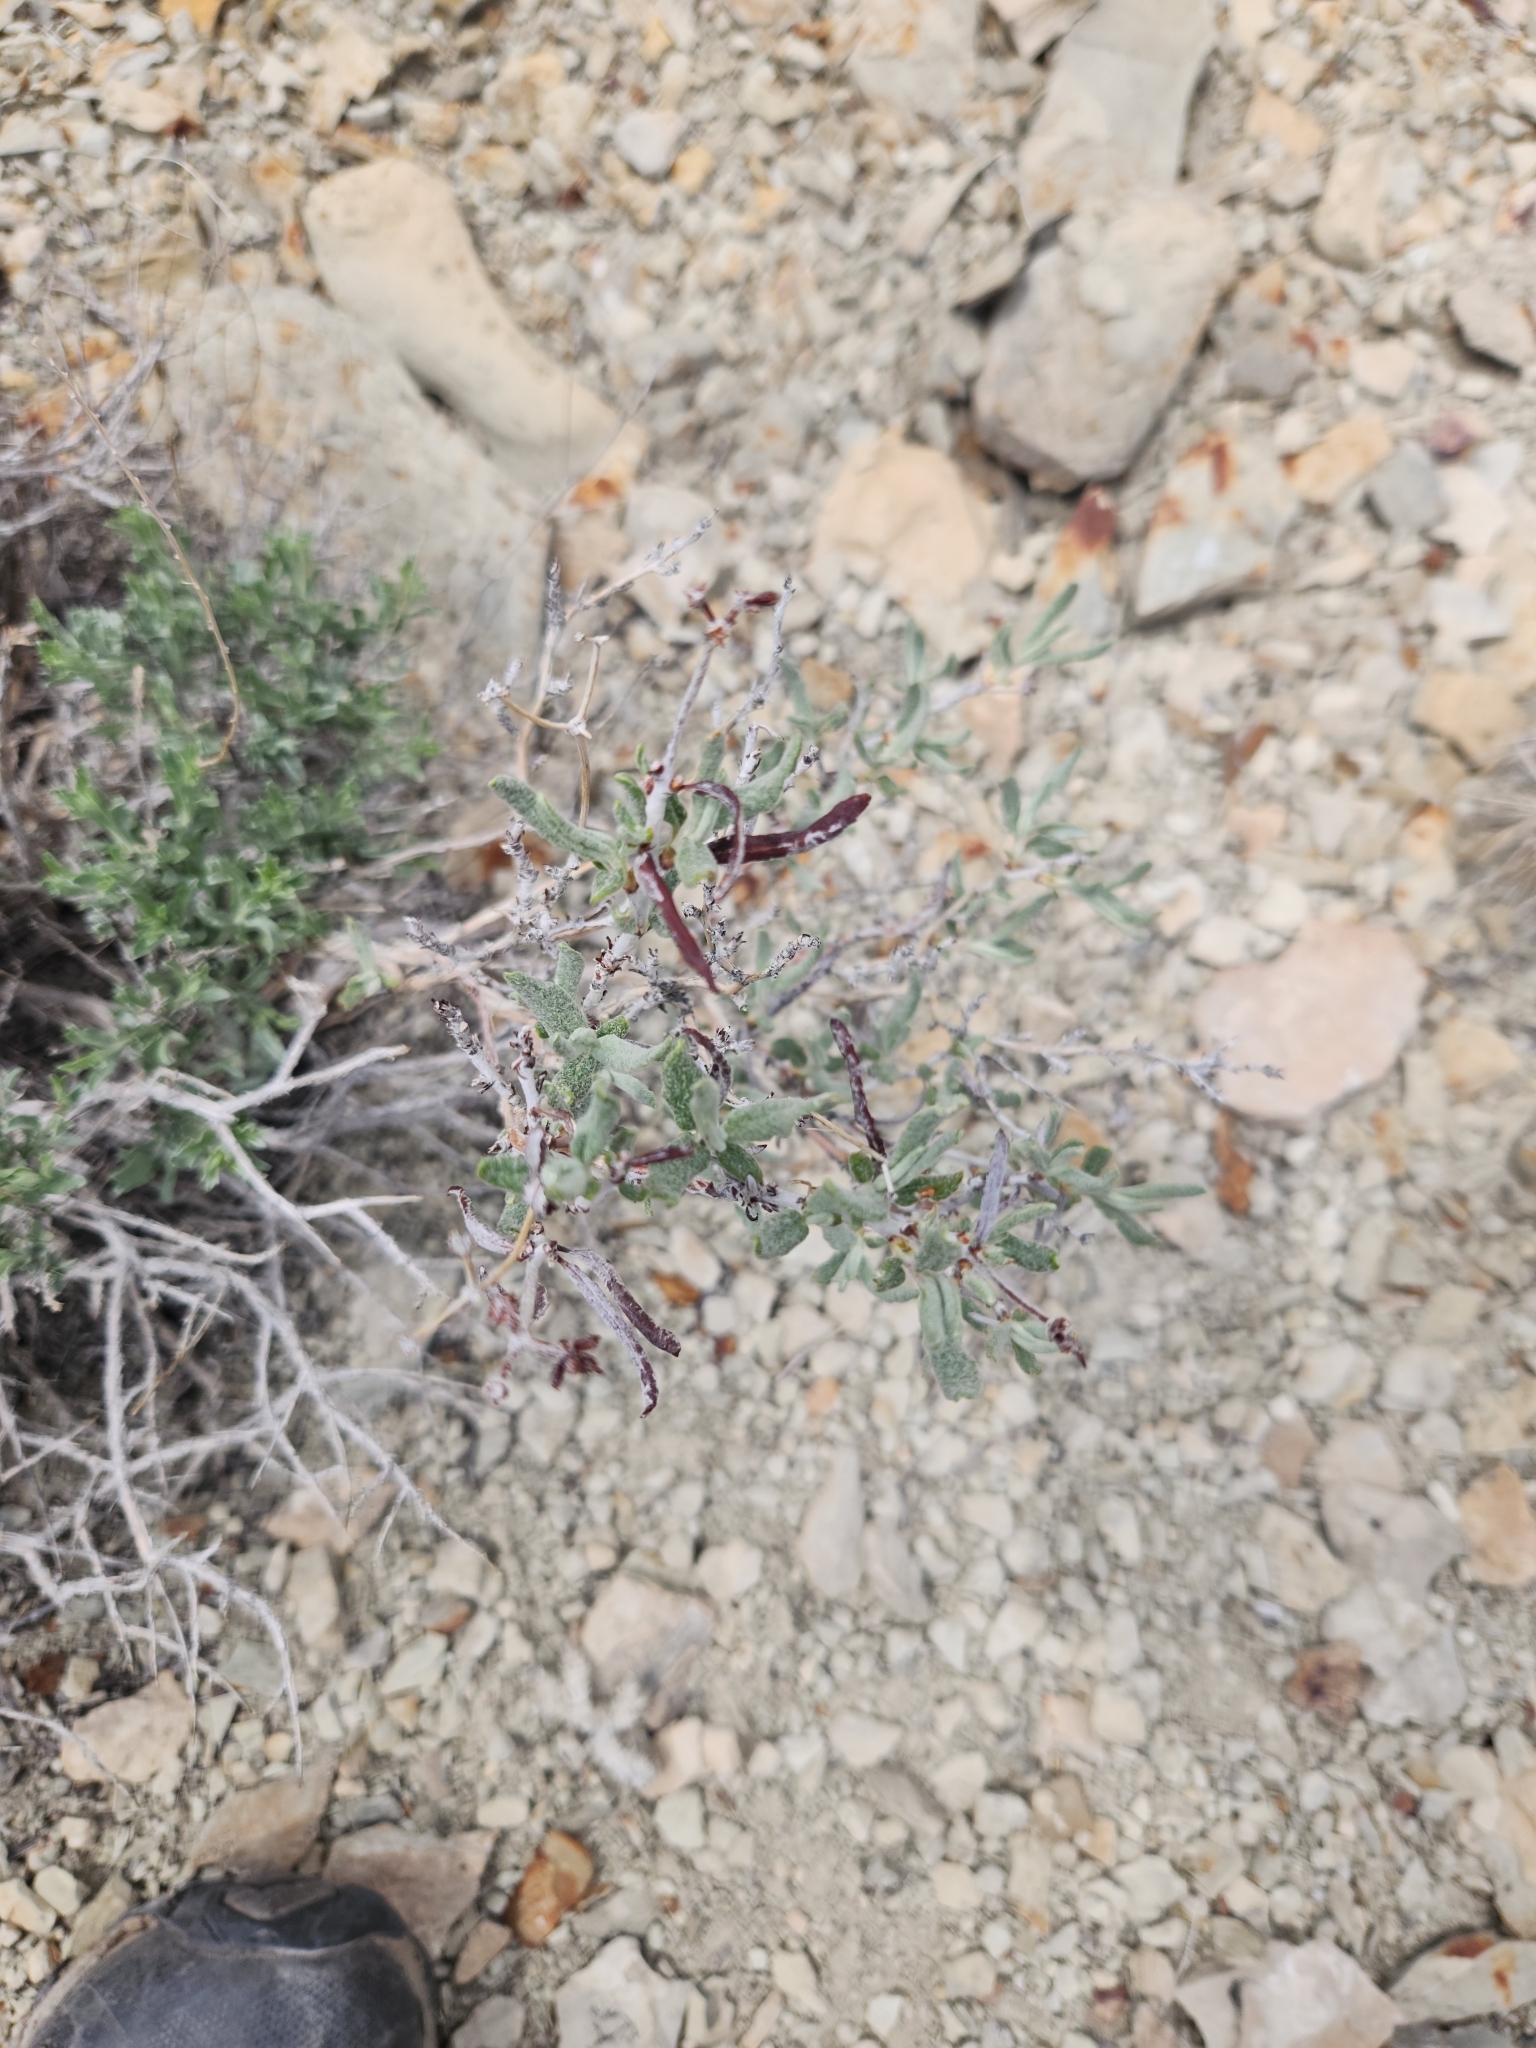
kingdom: Plantae
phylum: Tracheophyta
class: Magnoliopsida
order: Caryophyllales
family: Polygonaceae
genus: Eriogonum
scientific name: Eriogonum corymbosum
